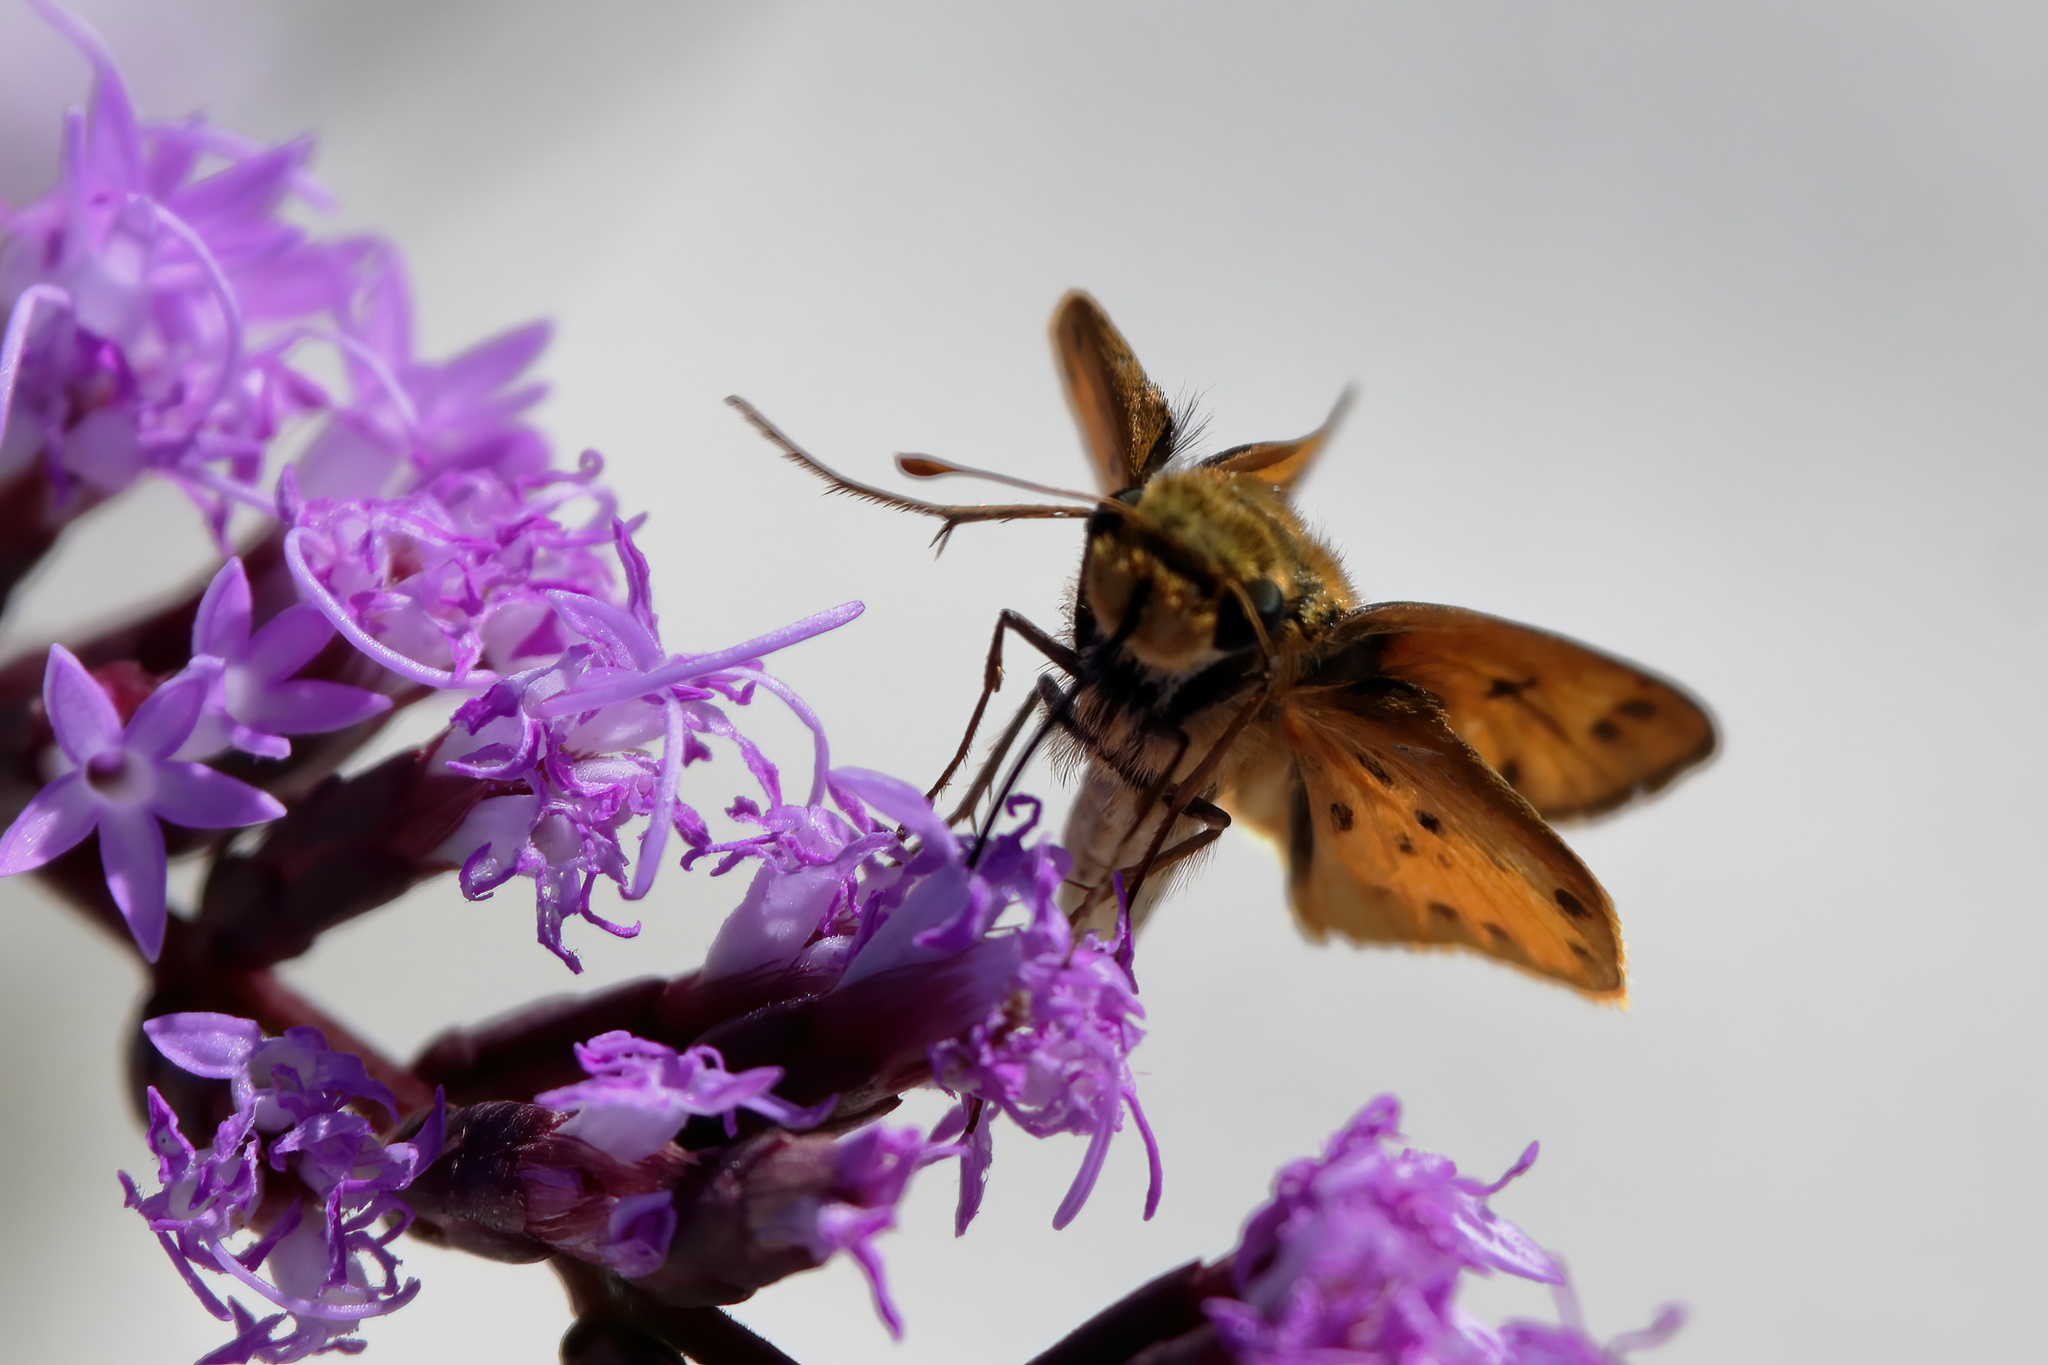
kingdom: Animalia
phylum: Arthropoda
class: Insecta
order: Lepidoptera
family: Hesperiidae
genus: Hylephila
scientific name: Hylephila phyleus
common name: Fiery skipper
